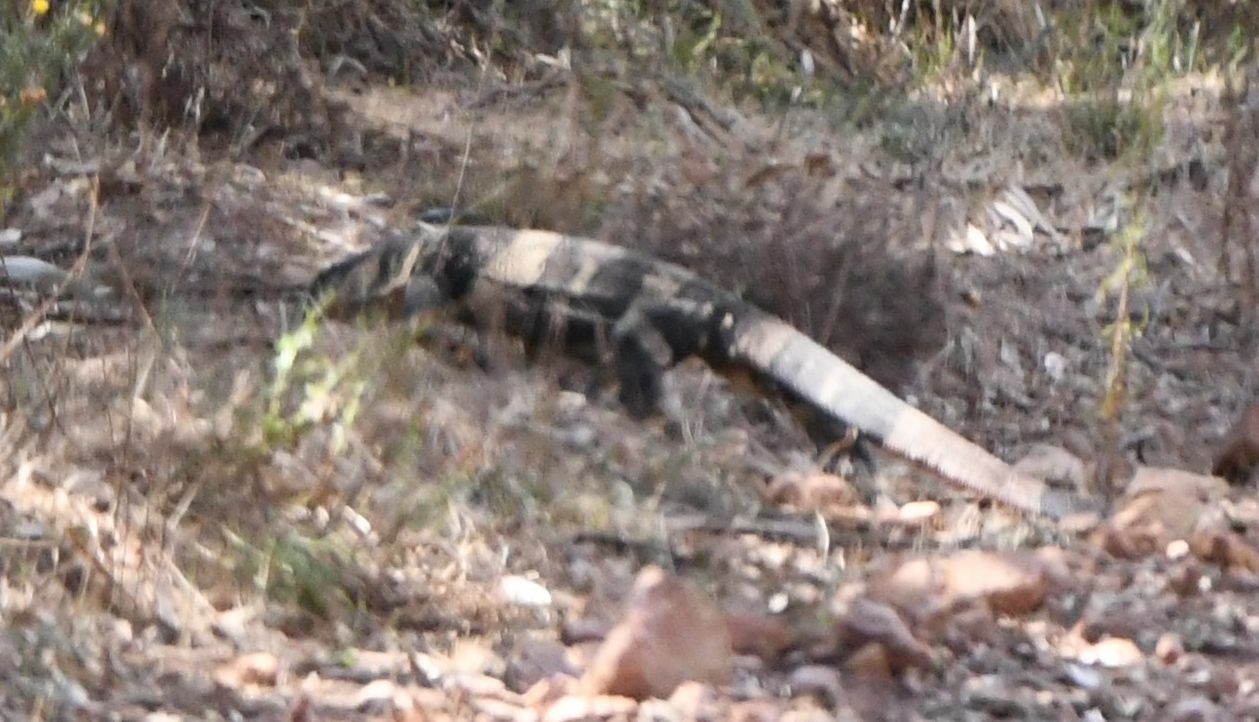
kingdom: Animalia
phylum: Chordata
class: Squamata
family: Varanidae
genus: Varanus
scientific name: Varanus varius
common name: Lace monitor
